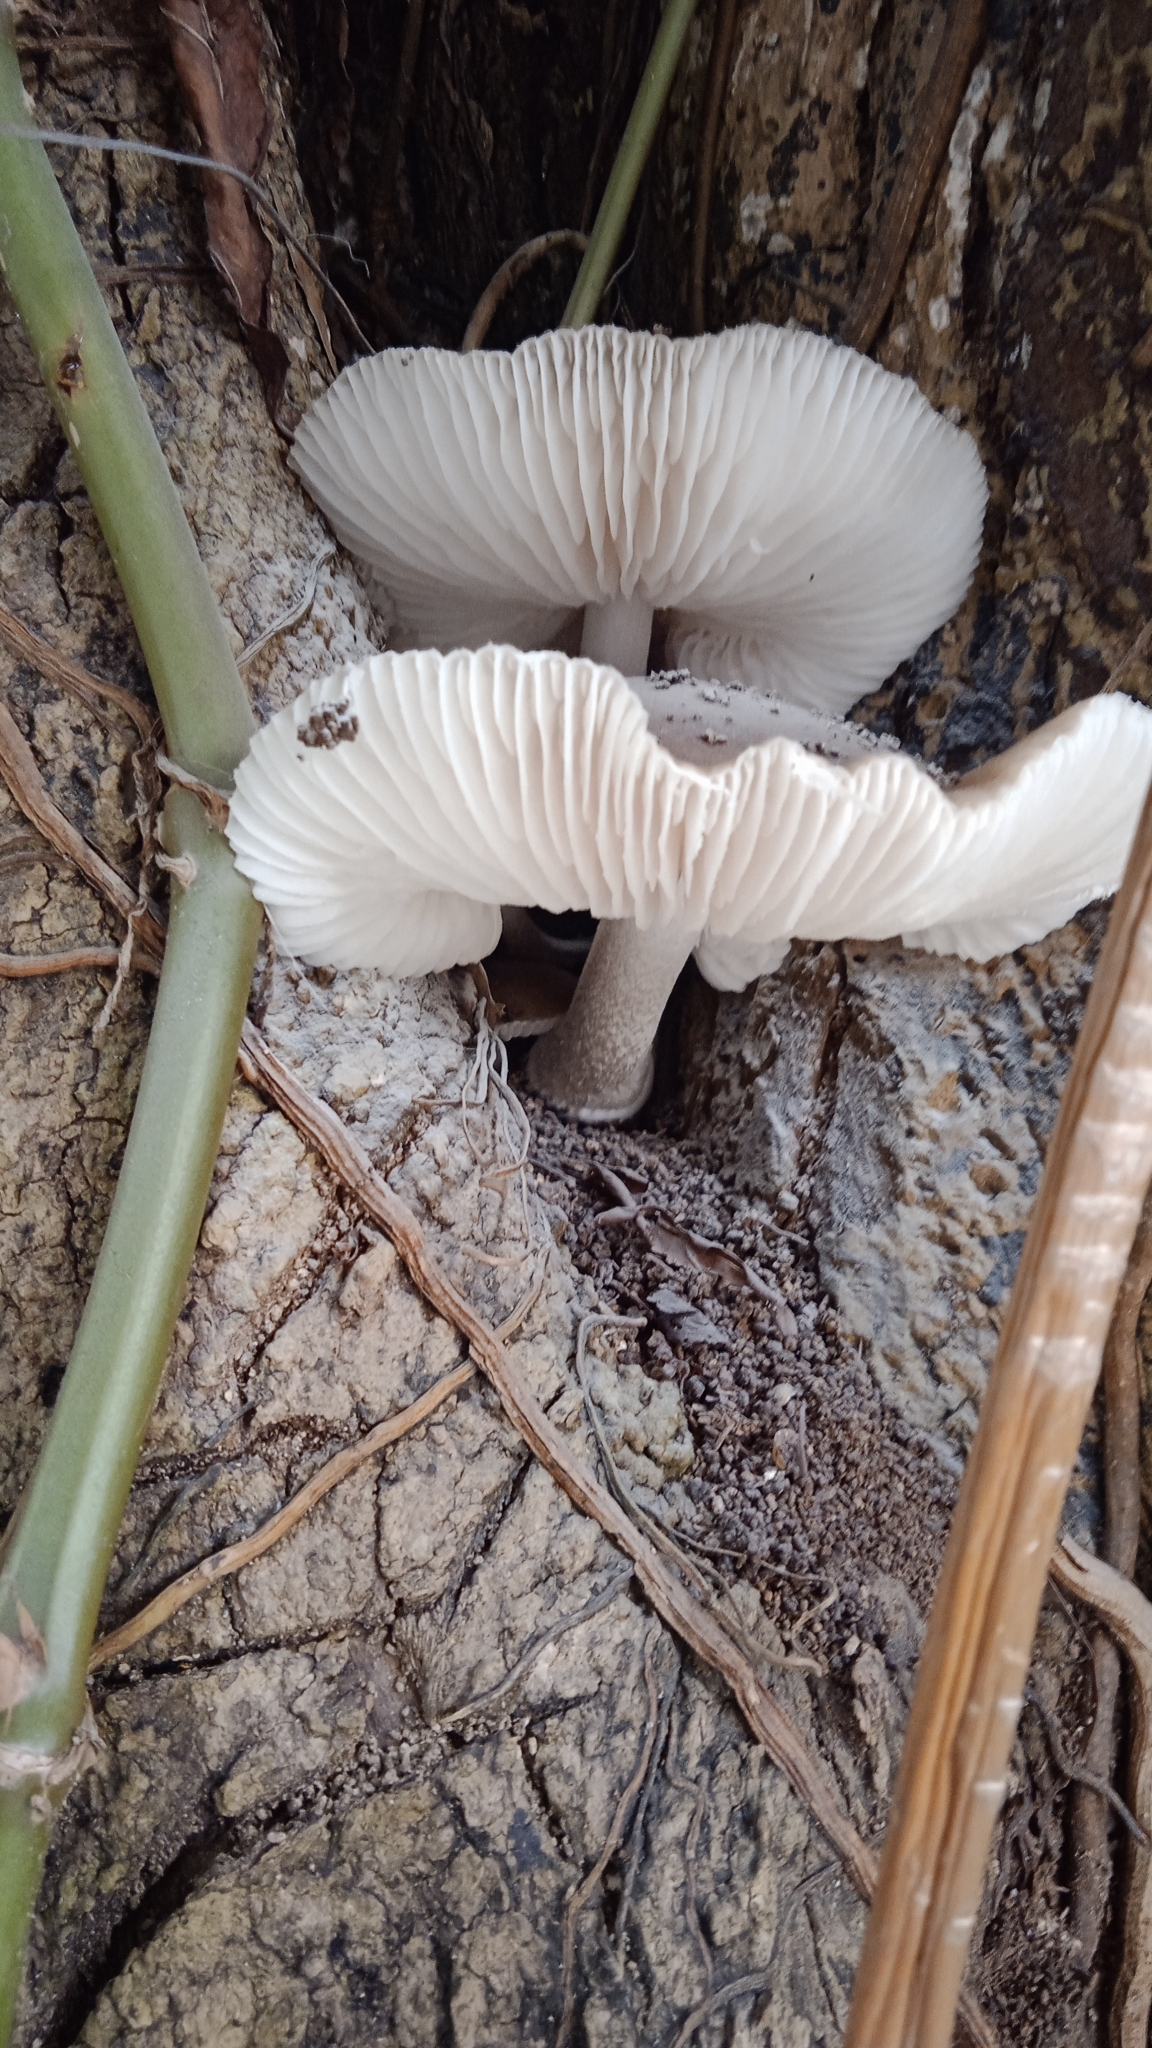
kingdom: Fungi
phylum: Basidiomycota
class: Agaricomycetes
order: Agaricales
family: Physalacriaceae
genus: Oudemansiella
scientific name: Oudemansiella cubensis
